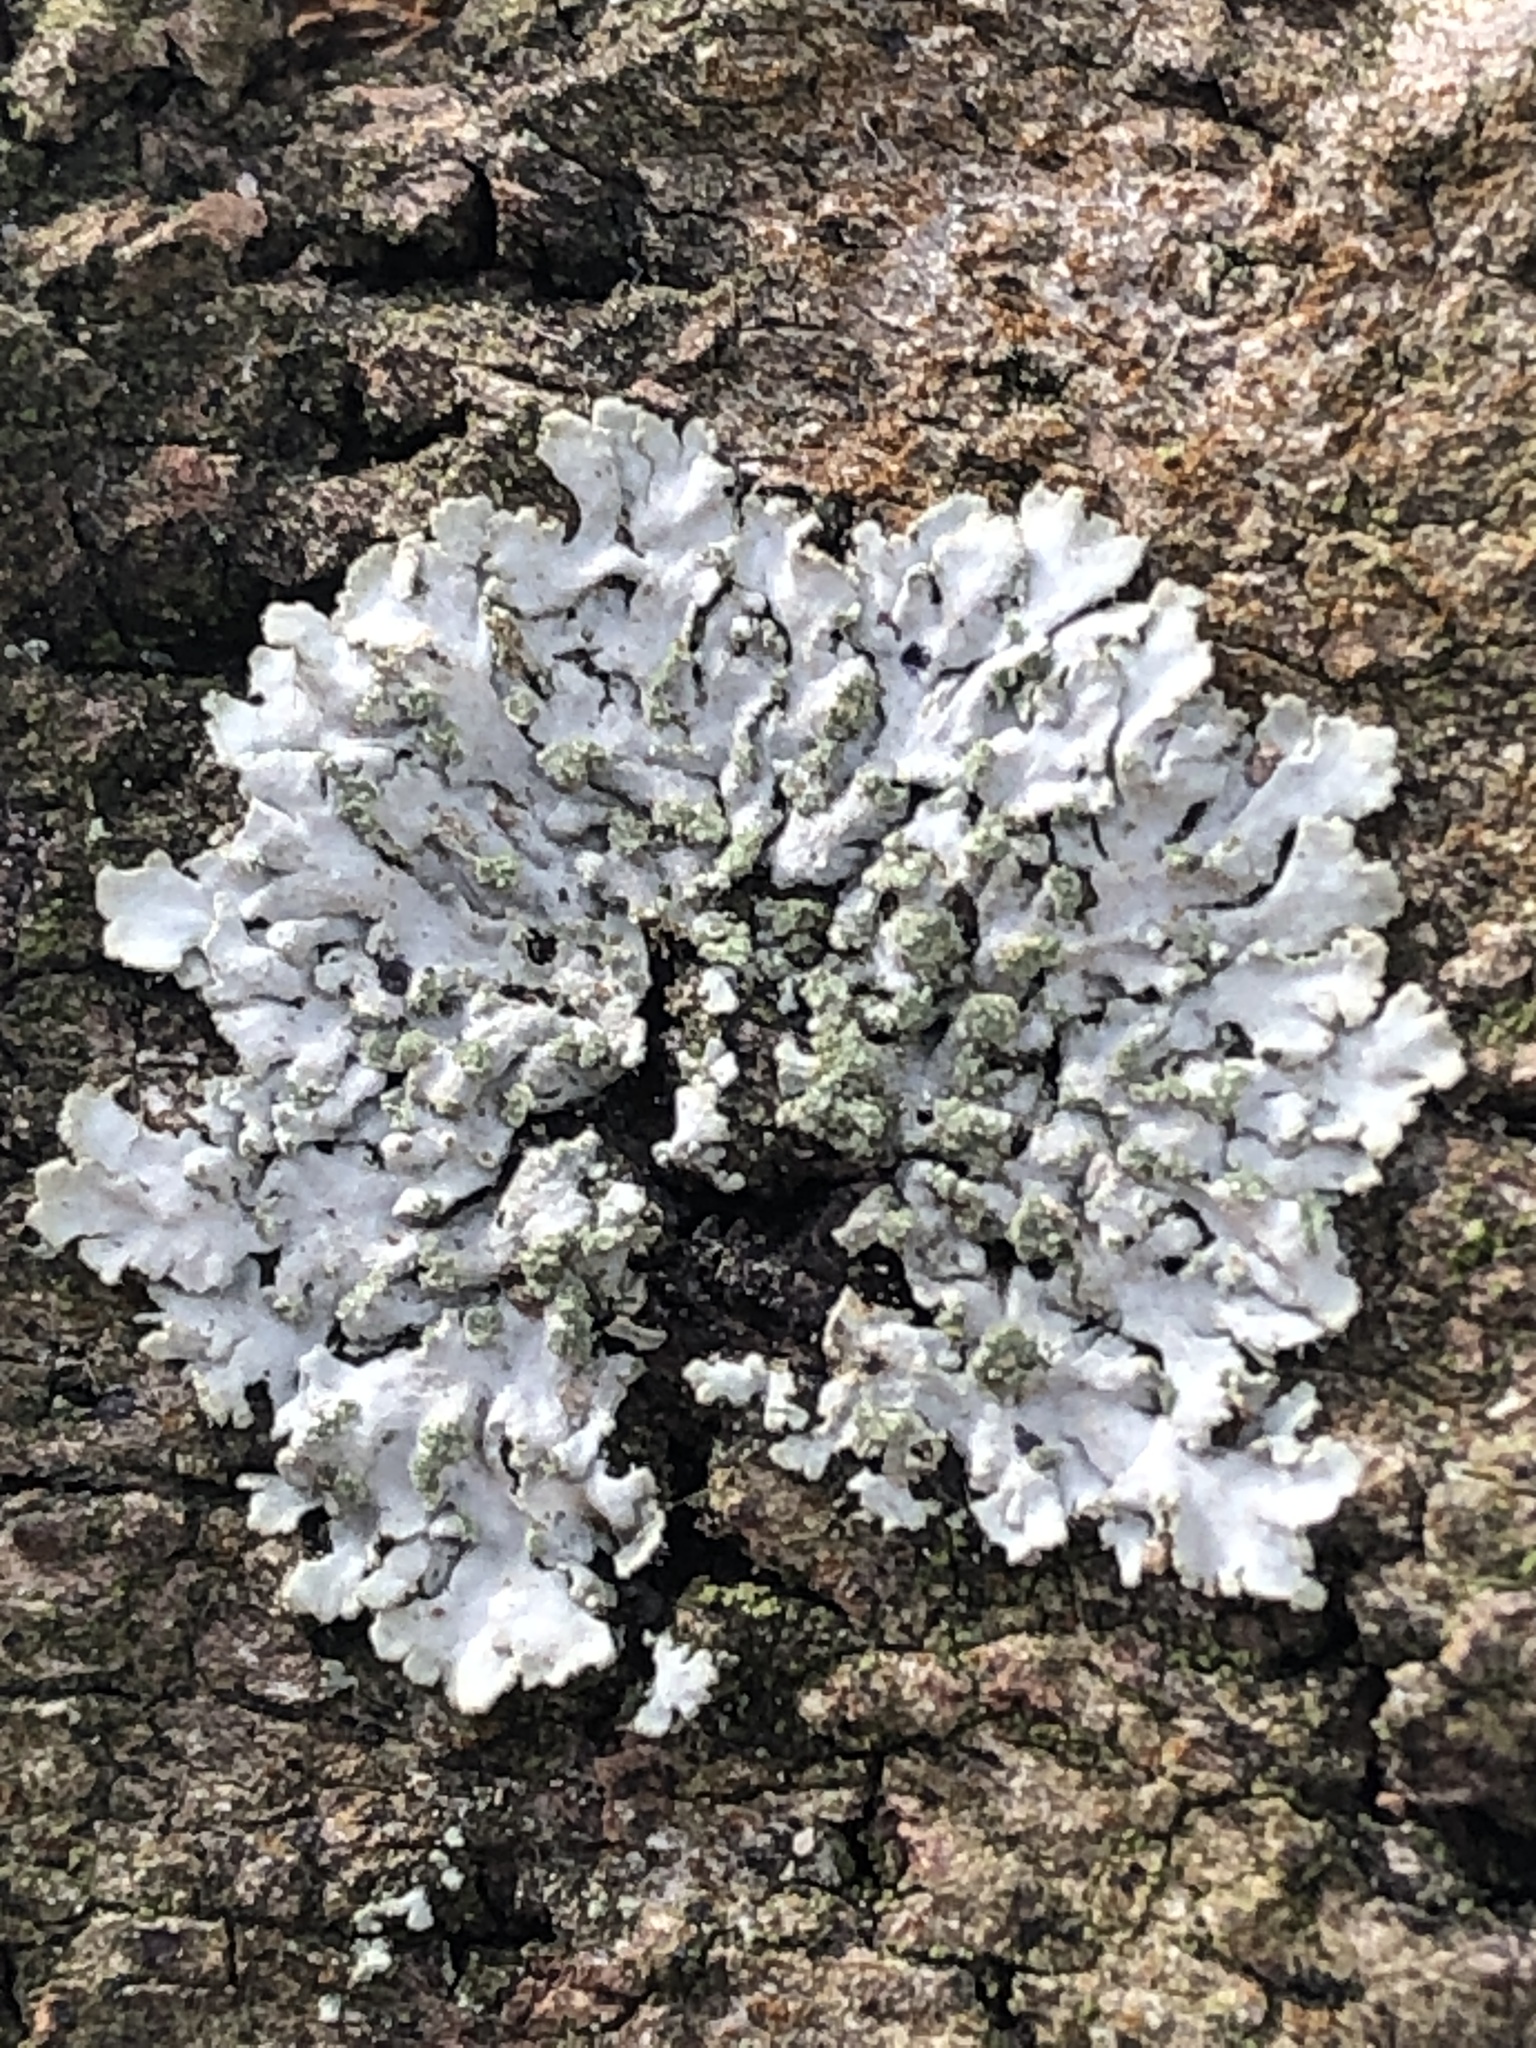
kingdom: Fungi
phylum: Ascomycota
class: Lecanoromycetes
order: Caliciales
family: Physciaceae
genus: Phaeophyscia
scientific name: Phaeophyscia orbicularis
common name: Mealy shadow lichen
